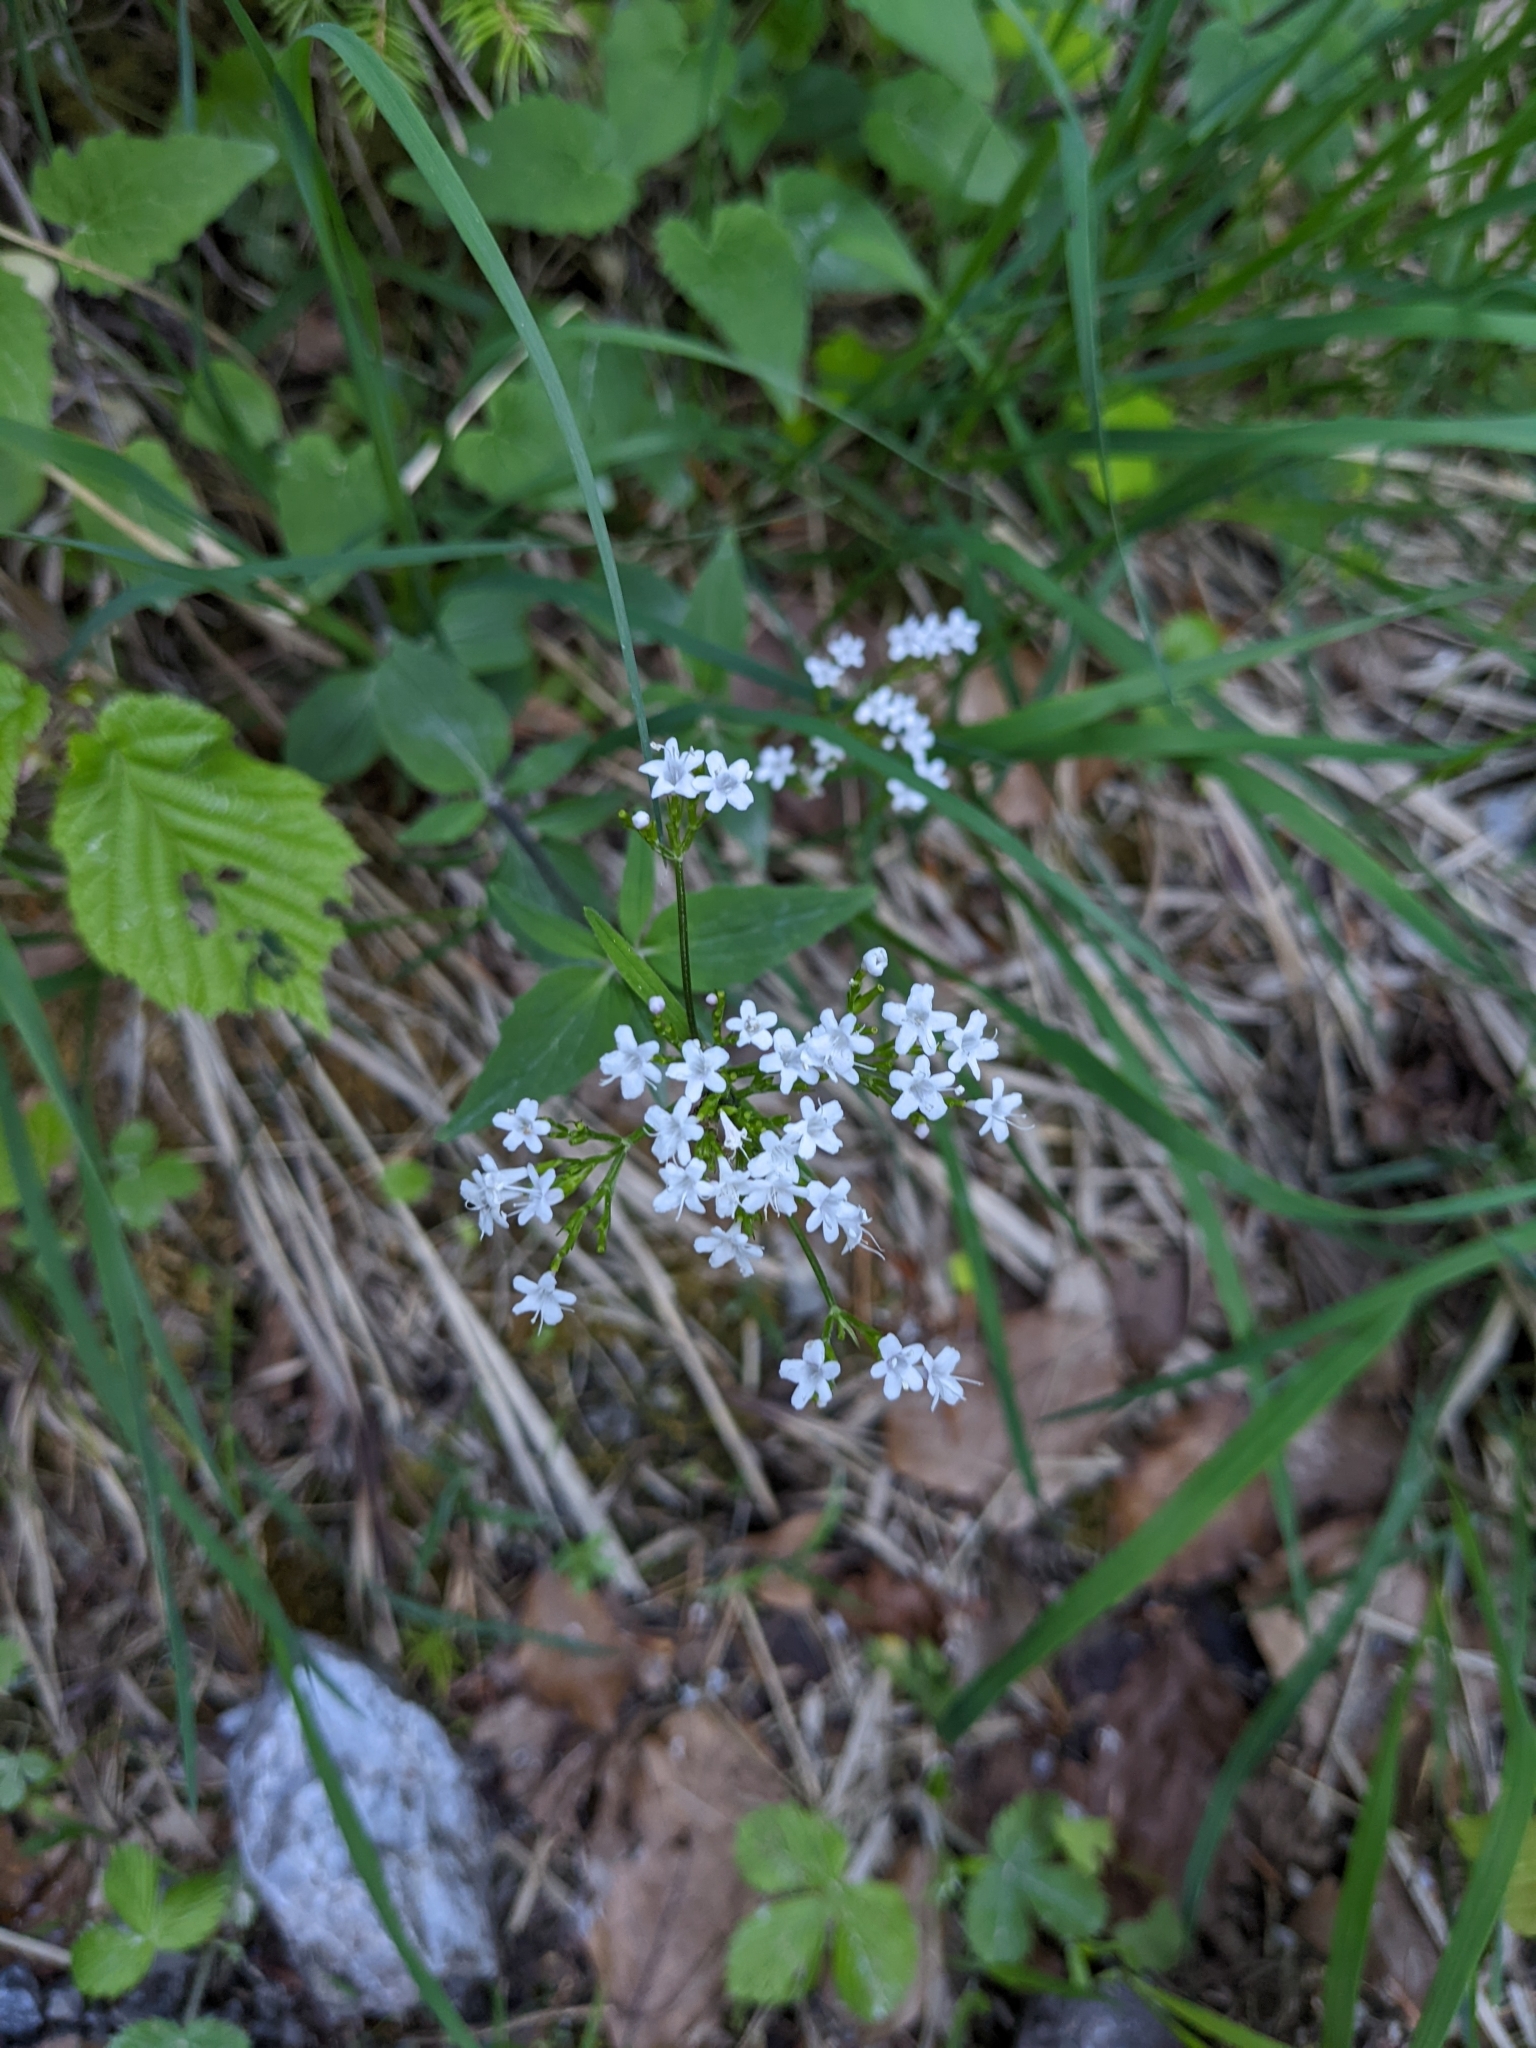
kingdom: Plantae
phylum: Tracheophyta
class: Magnoliopsida
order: Dipsacales
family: Caprifoliaceae
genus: Valeriana
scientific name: Valeriana tripteris
